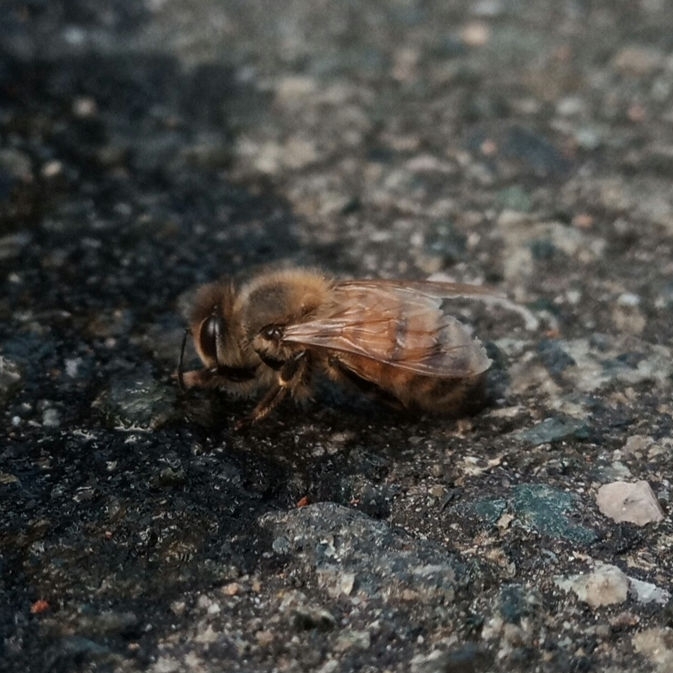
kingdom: Animalia
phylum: Arthropoda
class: Insecta
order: Hymenoptera
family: Apidae
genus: Apis
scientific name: Apis mellifera
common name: Honey bee
